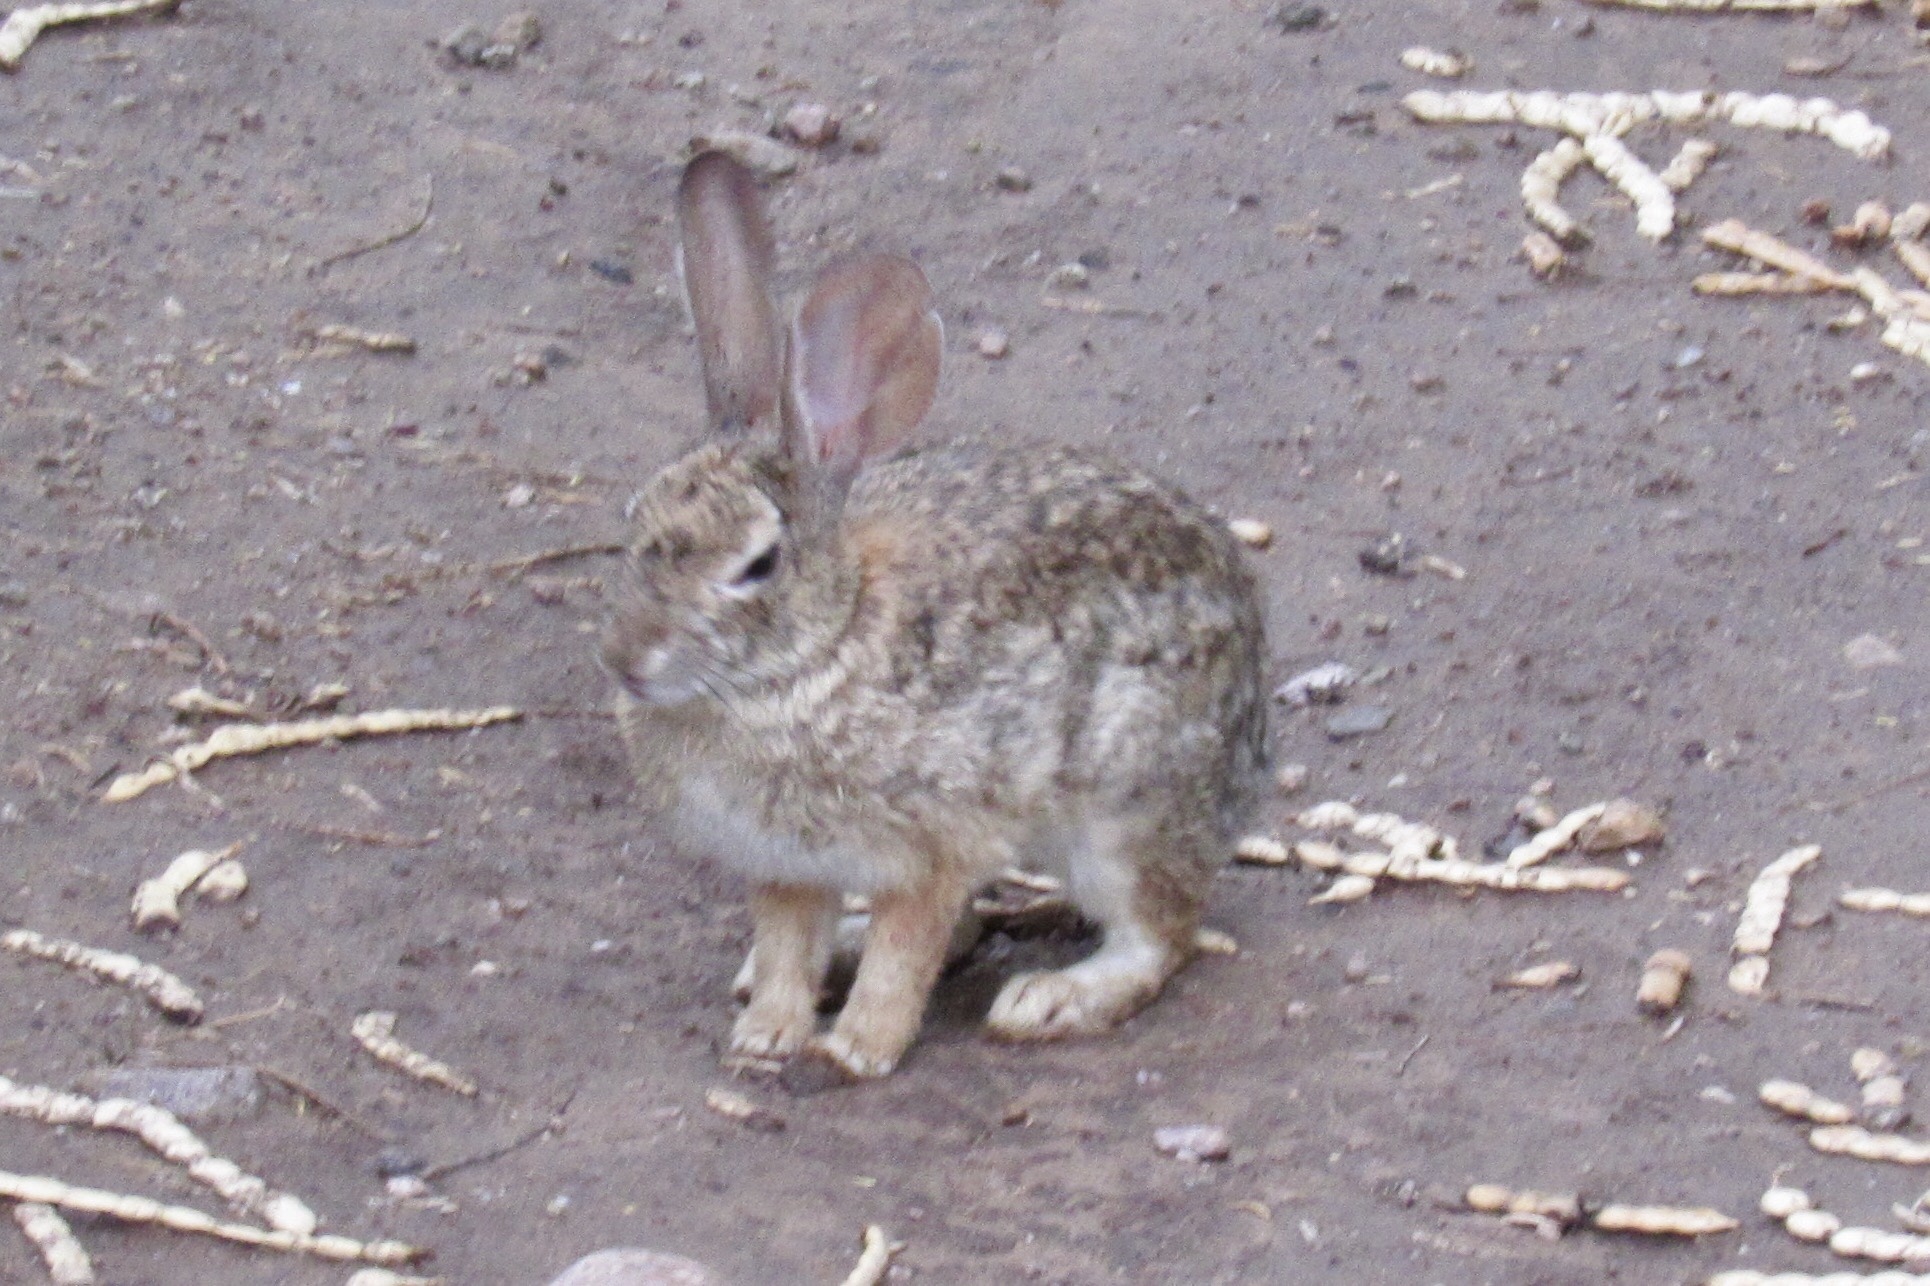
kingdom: Animalia
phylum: Chordata
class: Mammalia
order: Lagomorpha
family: Leporidae
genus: Sylvilagus
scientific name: Sylvilagus audubonii
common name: Desert cottontail
